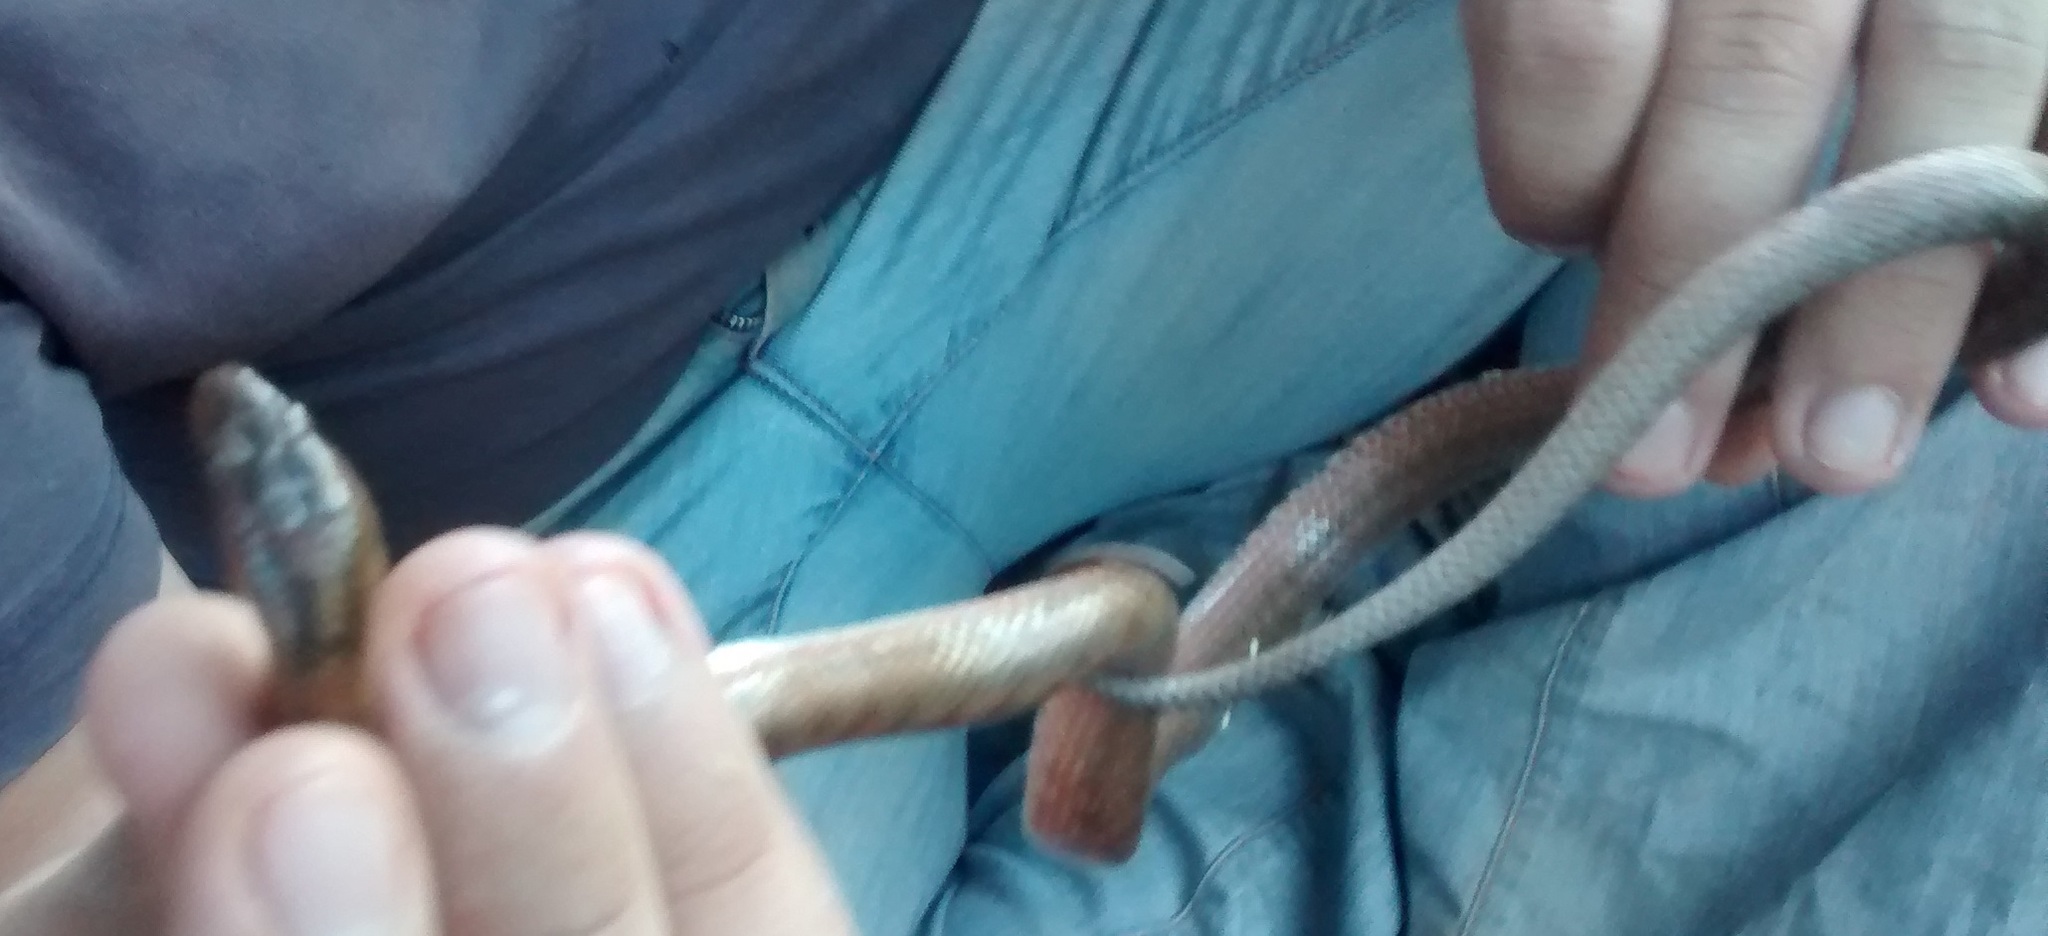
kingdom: Animalia
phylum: Chordata
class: Squamata
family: Colubridae
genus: Coronella
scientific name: Coronella girondica
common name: Southern smooth snake
